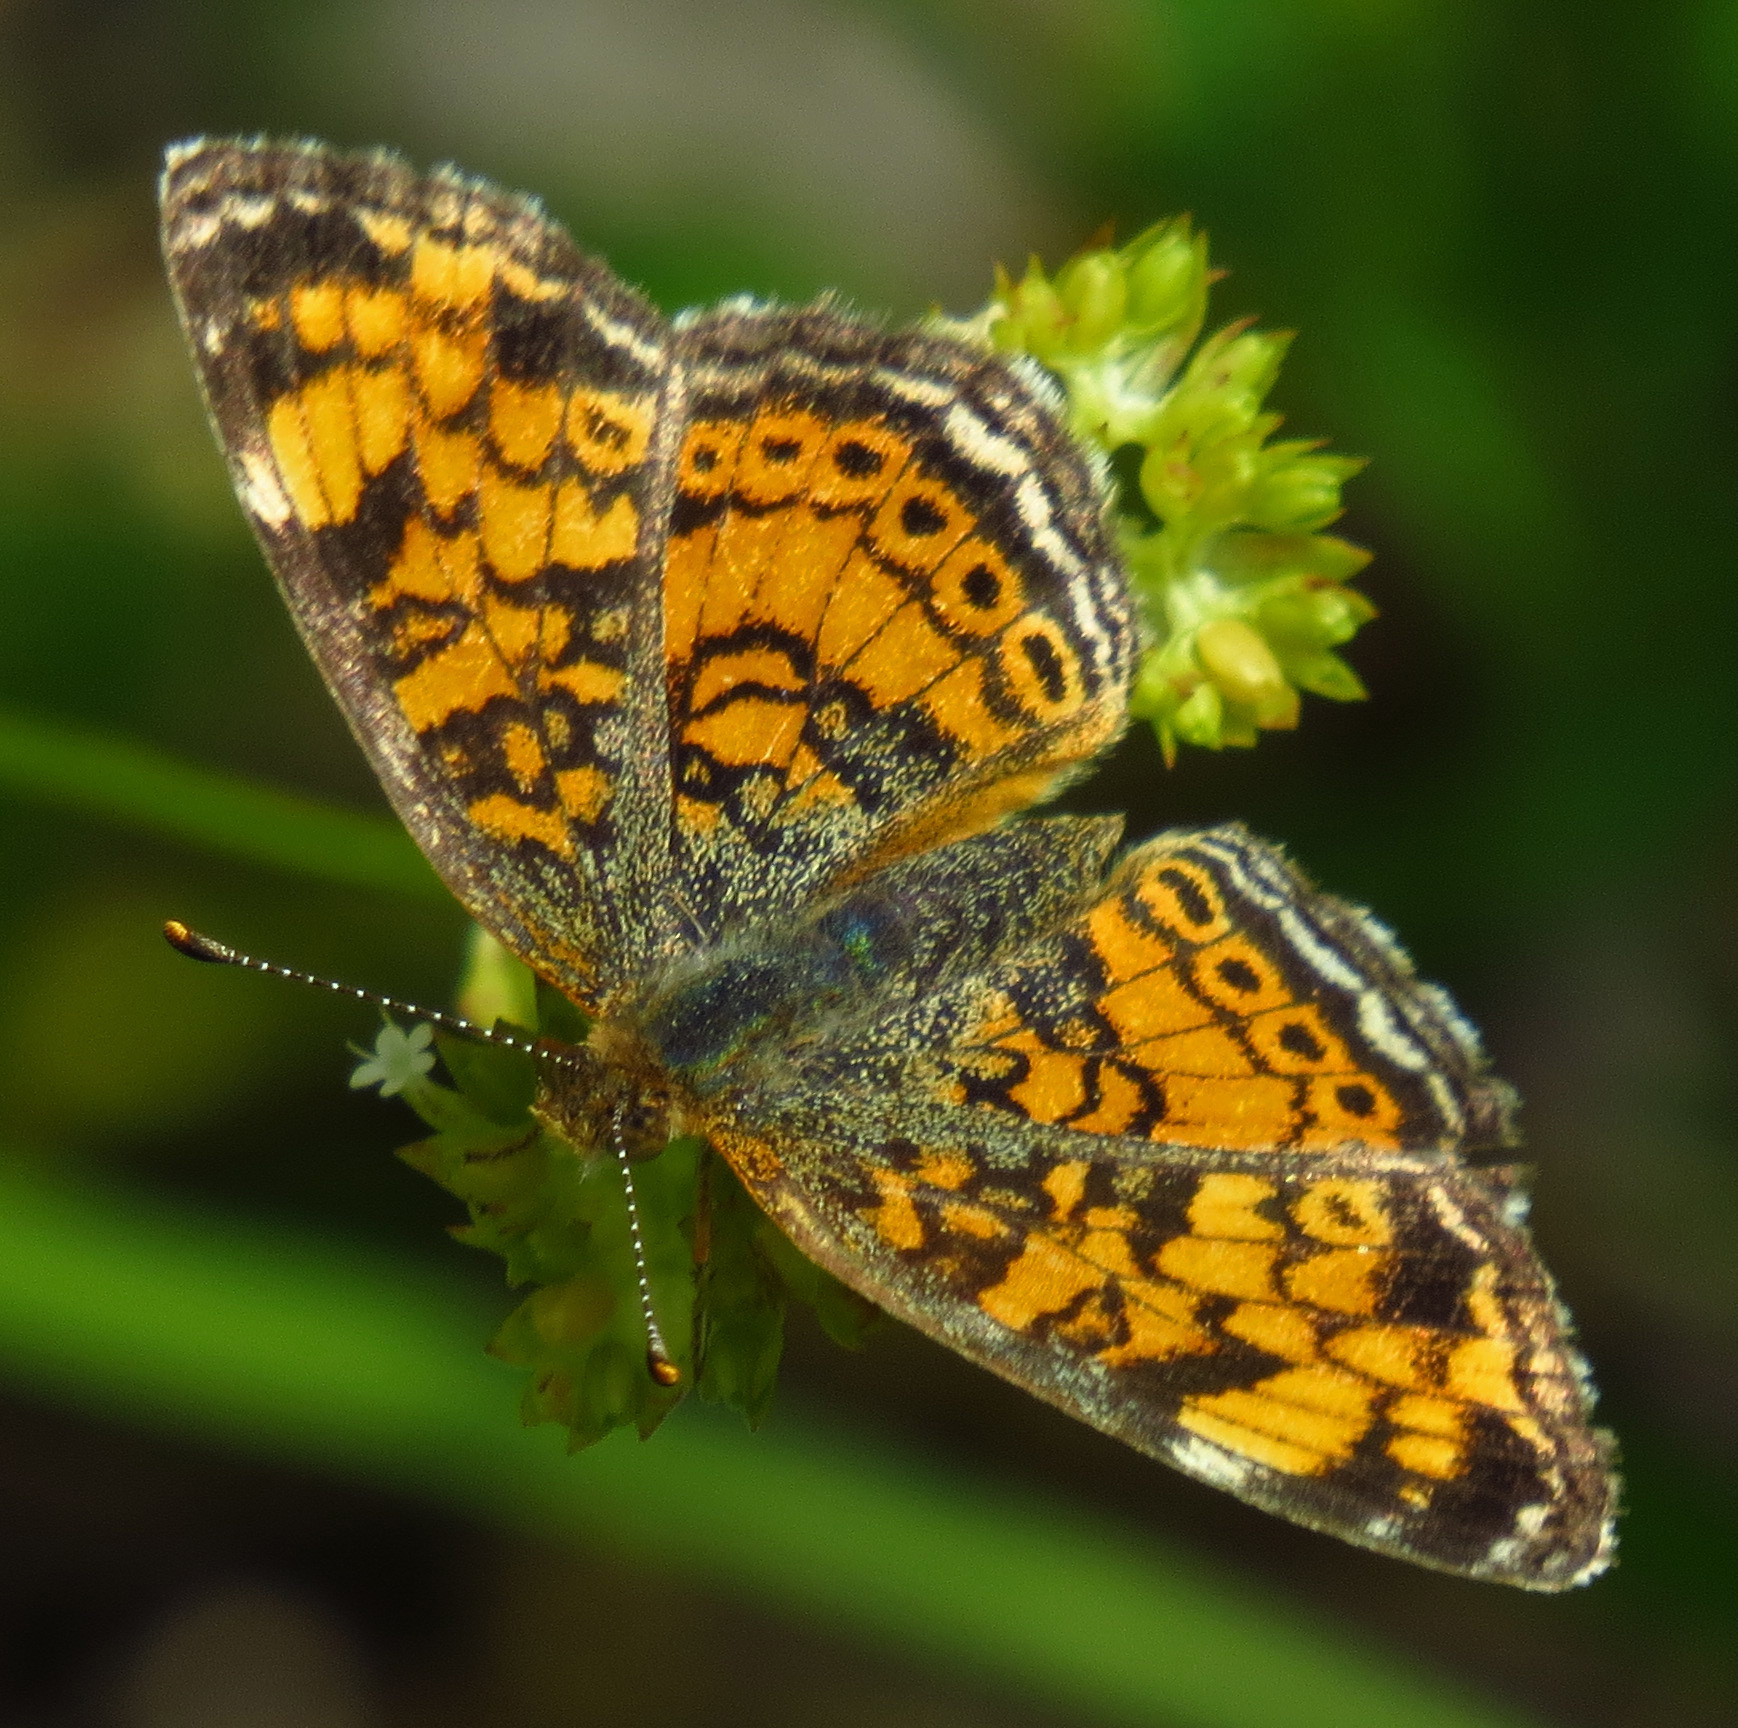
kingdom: Animalia
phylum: Arthropoda
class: Insecta
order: Lepidoptera
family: Nymphalidae
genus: Phyciodes
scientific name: Phyciodes tharos
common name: Pearl crescent
